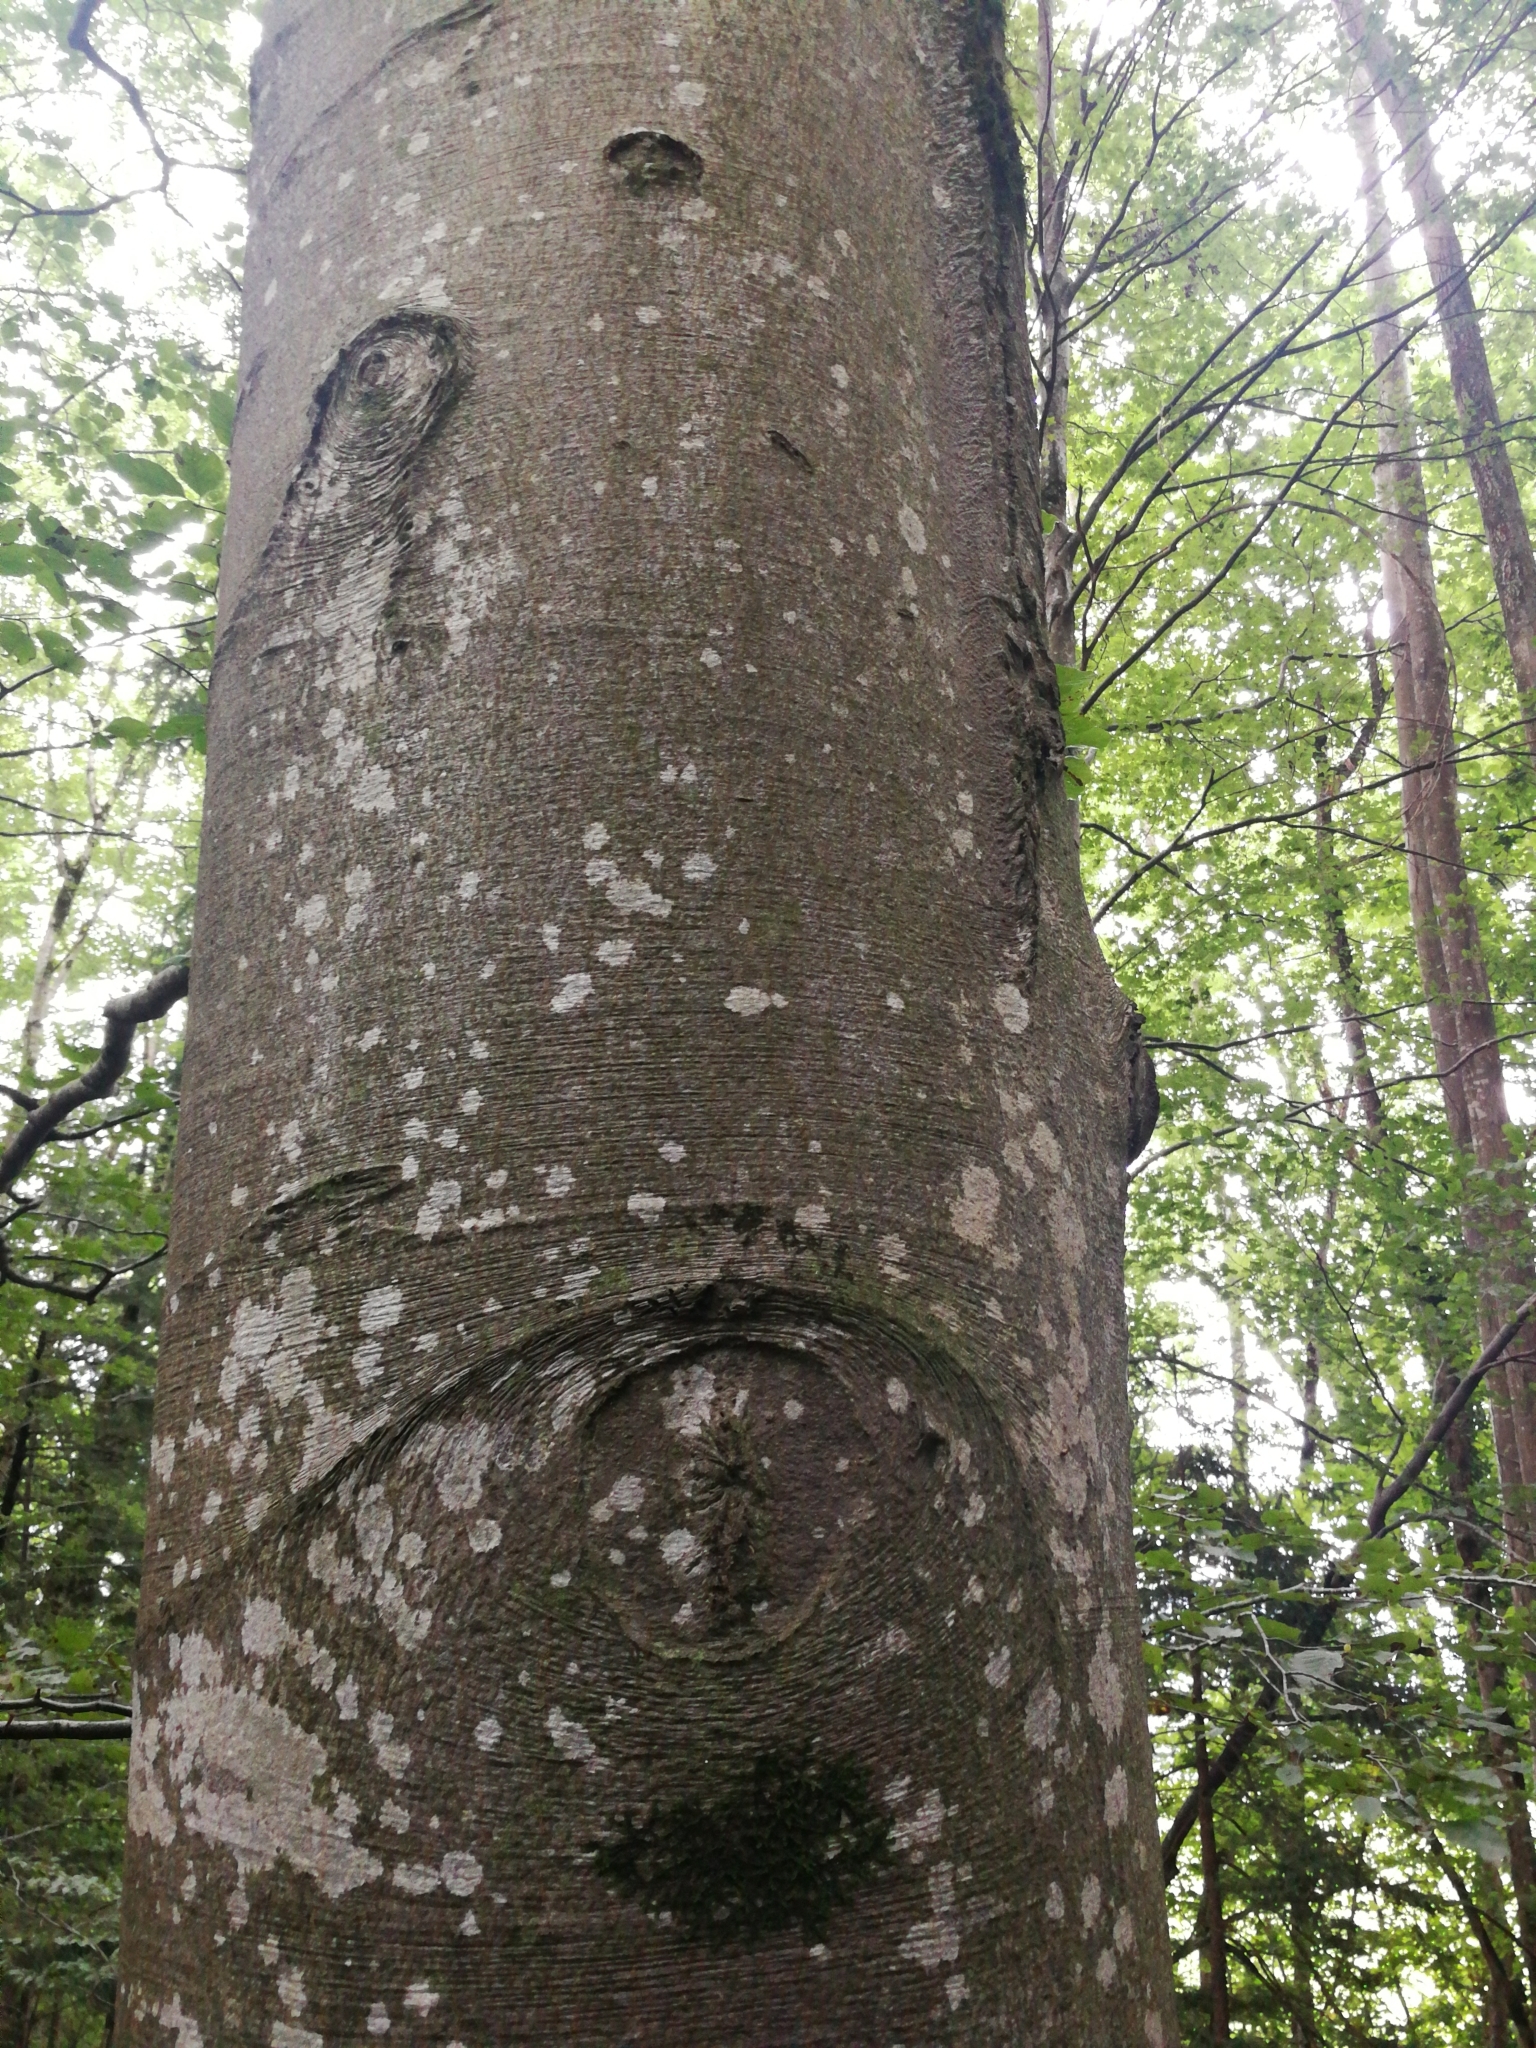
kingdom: Plantae
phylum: Tracheophyta
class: Magnoliopsida
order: Fagales
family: Fagaceae
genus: Fagus
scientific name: Fagus sylvatica
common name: Beech
